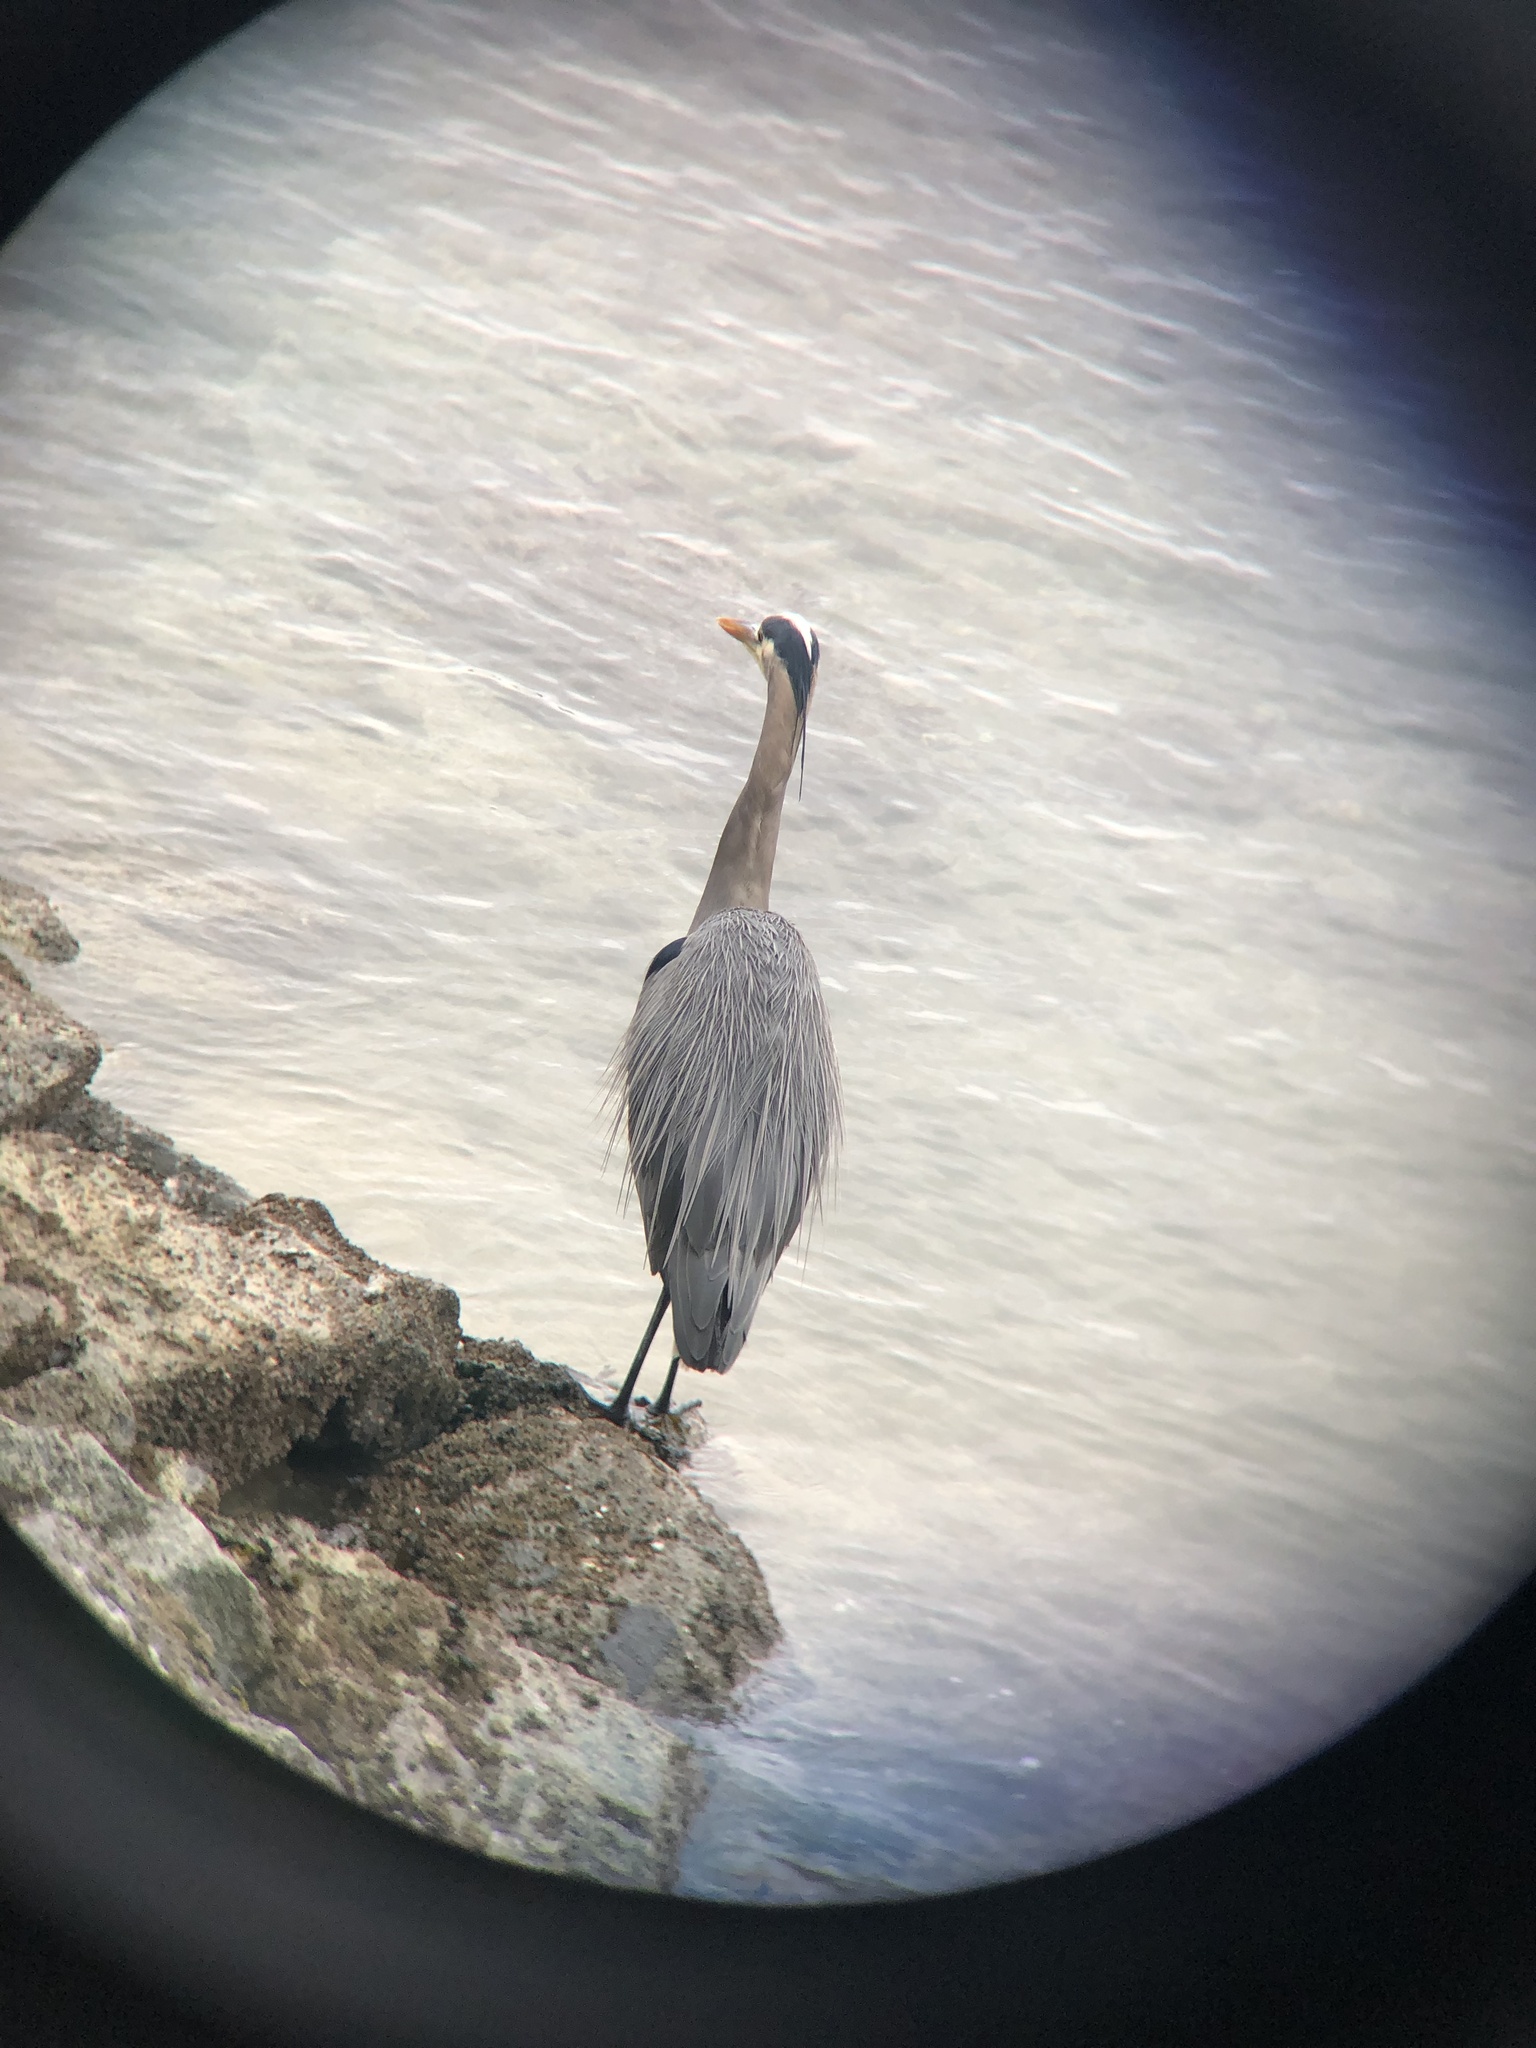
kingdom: Animalia
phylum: Chordata
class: Aves
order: Pelecaniformes
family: Ardeidae
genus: Ardea
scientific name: Ardea herodias
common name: Great blue heron
